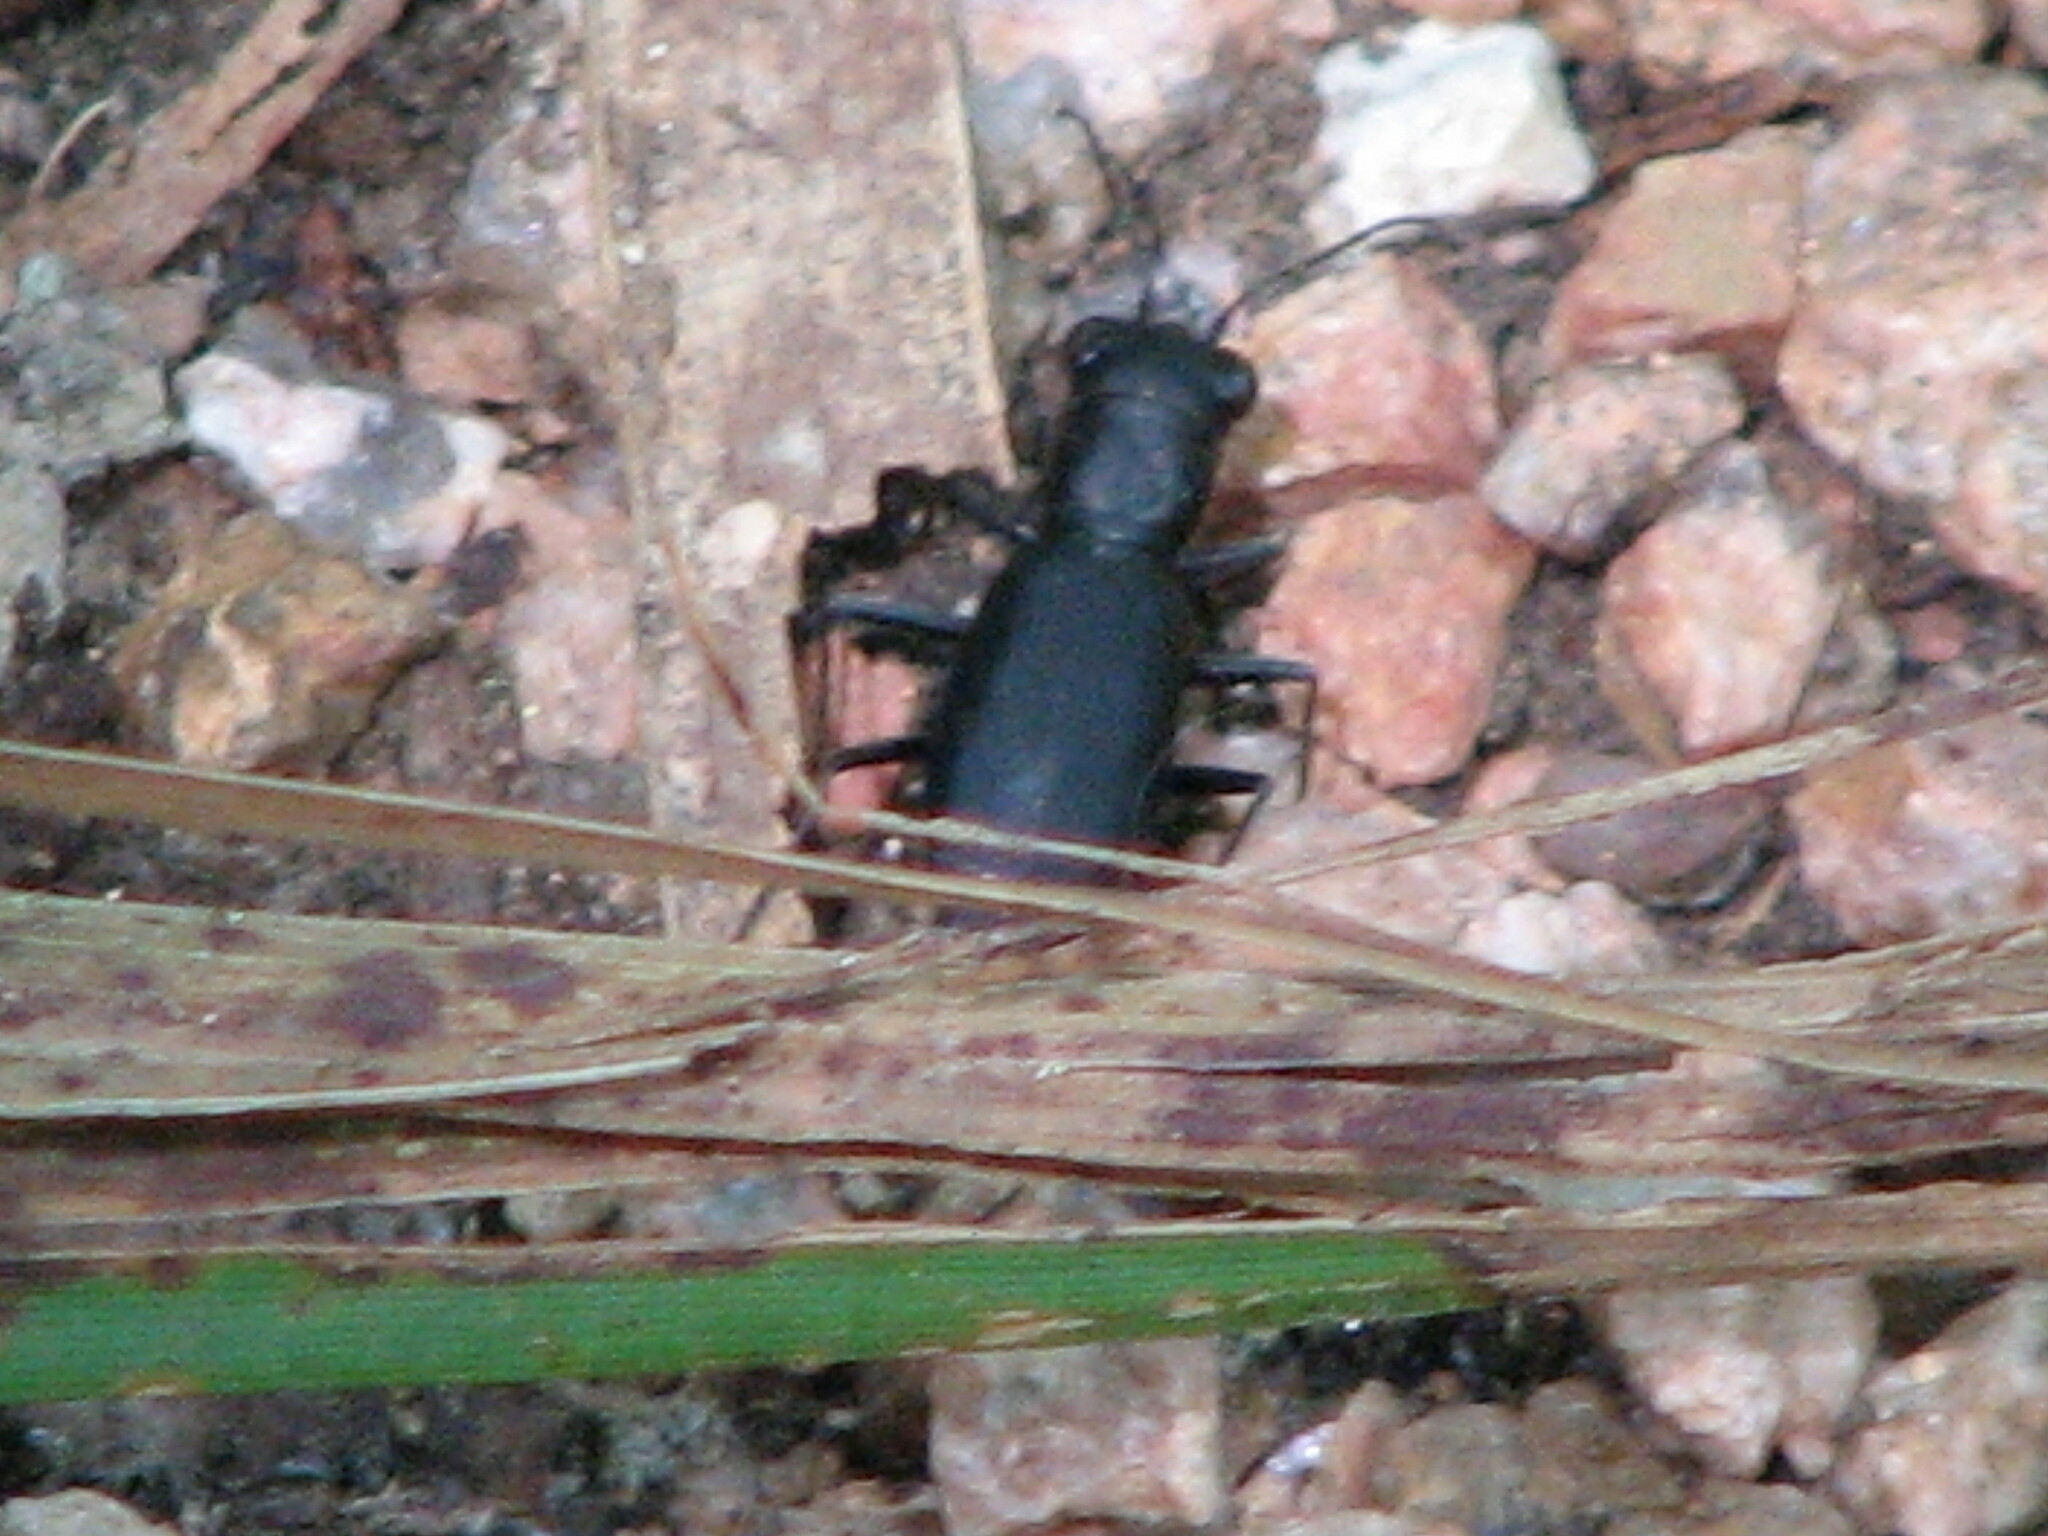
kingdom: Animalia
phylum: Arthropoda
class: Insecta
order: Coleoptera
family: Carabidae
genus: Dromochorus
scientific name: Dromochorus belfragei
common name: Loamy-ground dromo tiger beetle
